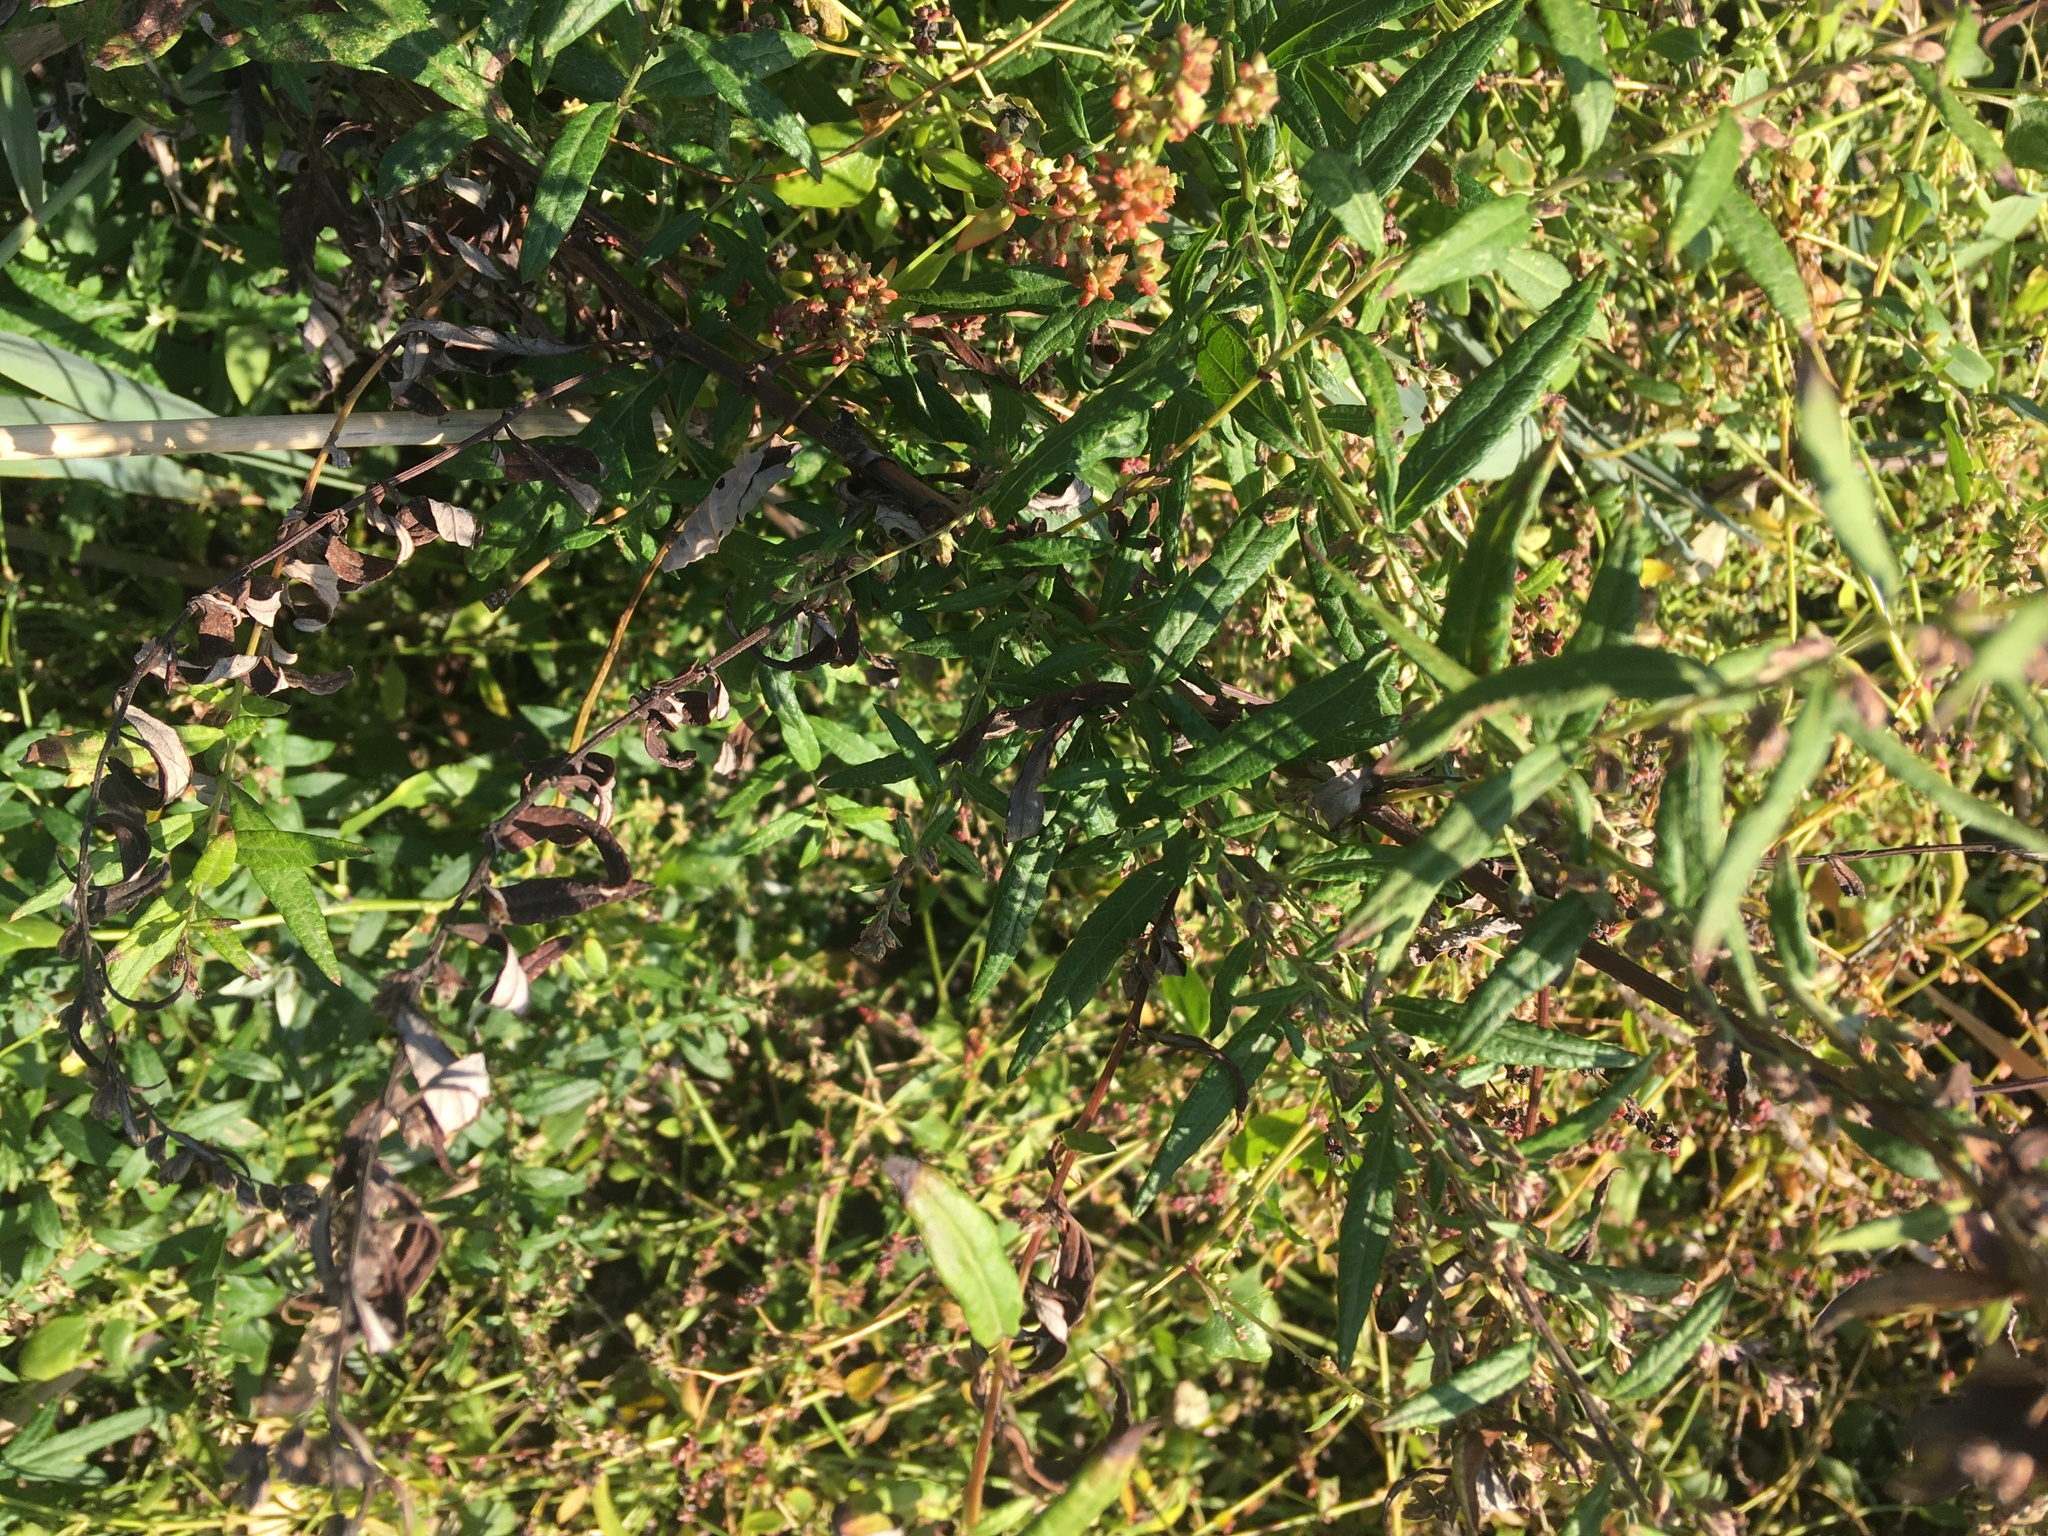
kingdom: Plantae
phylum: Tracheophyta
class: Magnoliopsida
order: Asterales
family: Asteraceae
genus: Artemisia
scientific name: Artemisia vulgaris
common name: Mugwort
